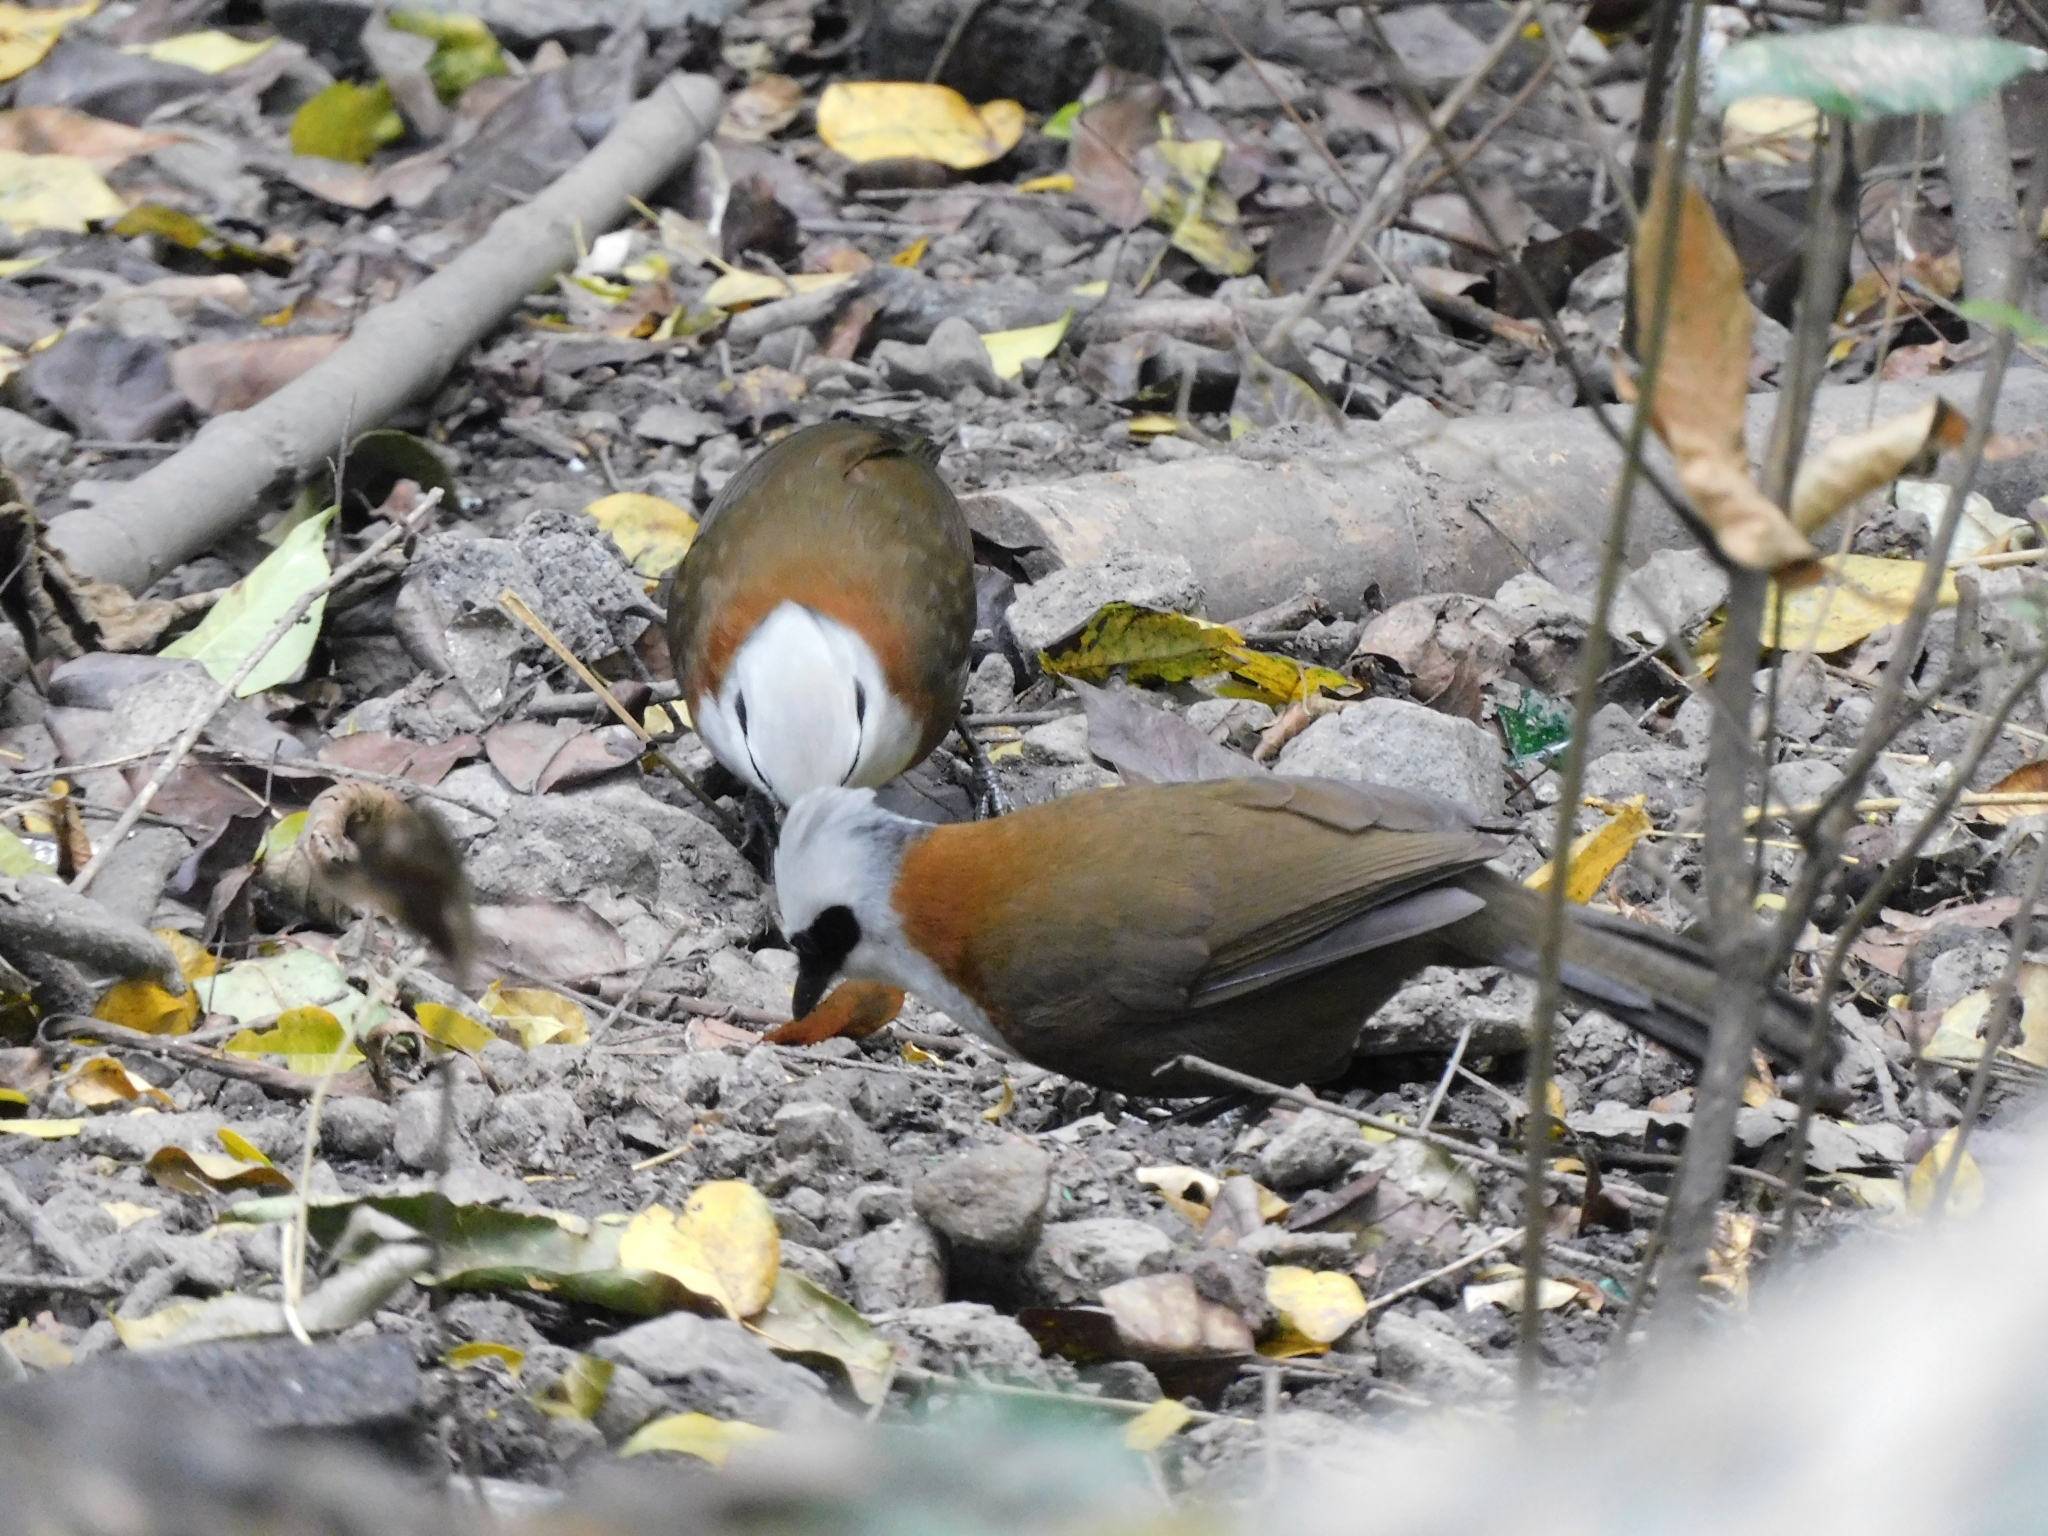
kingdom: Animalia
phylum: Chordata
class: Aves
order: Passeriformes
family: Leiothrichidae
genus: Garrulax
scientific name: Garrulax leucolophus
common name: White-crested laughingthrush
